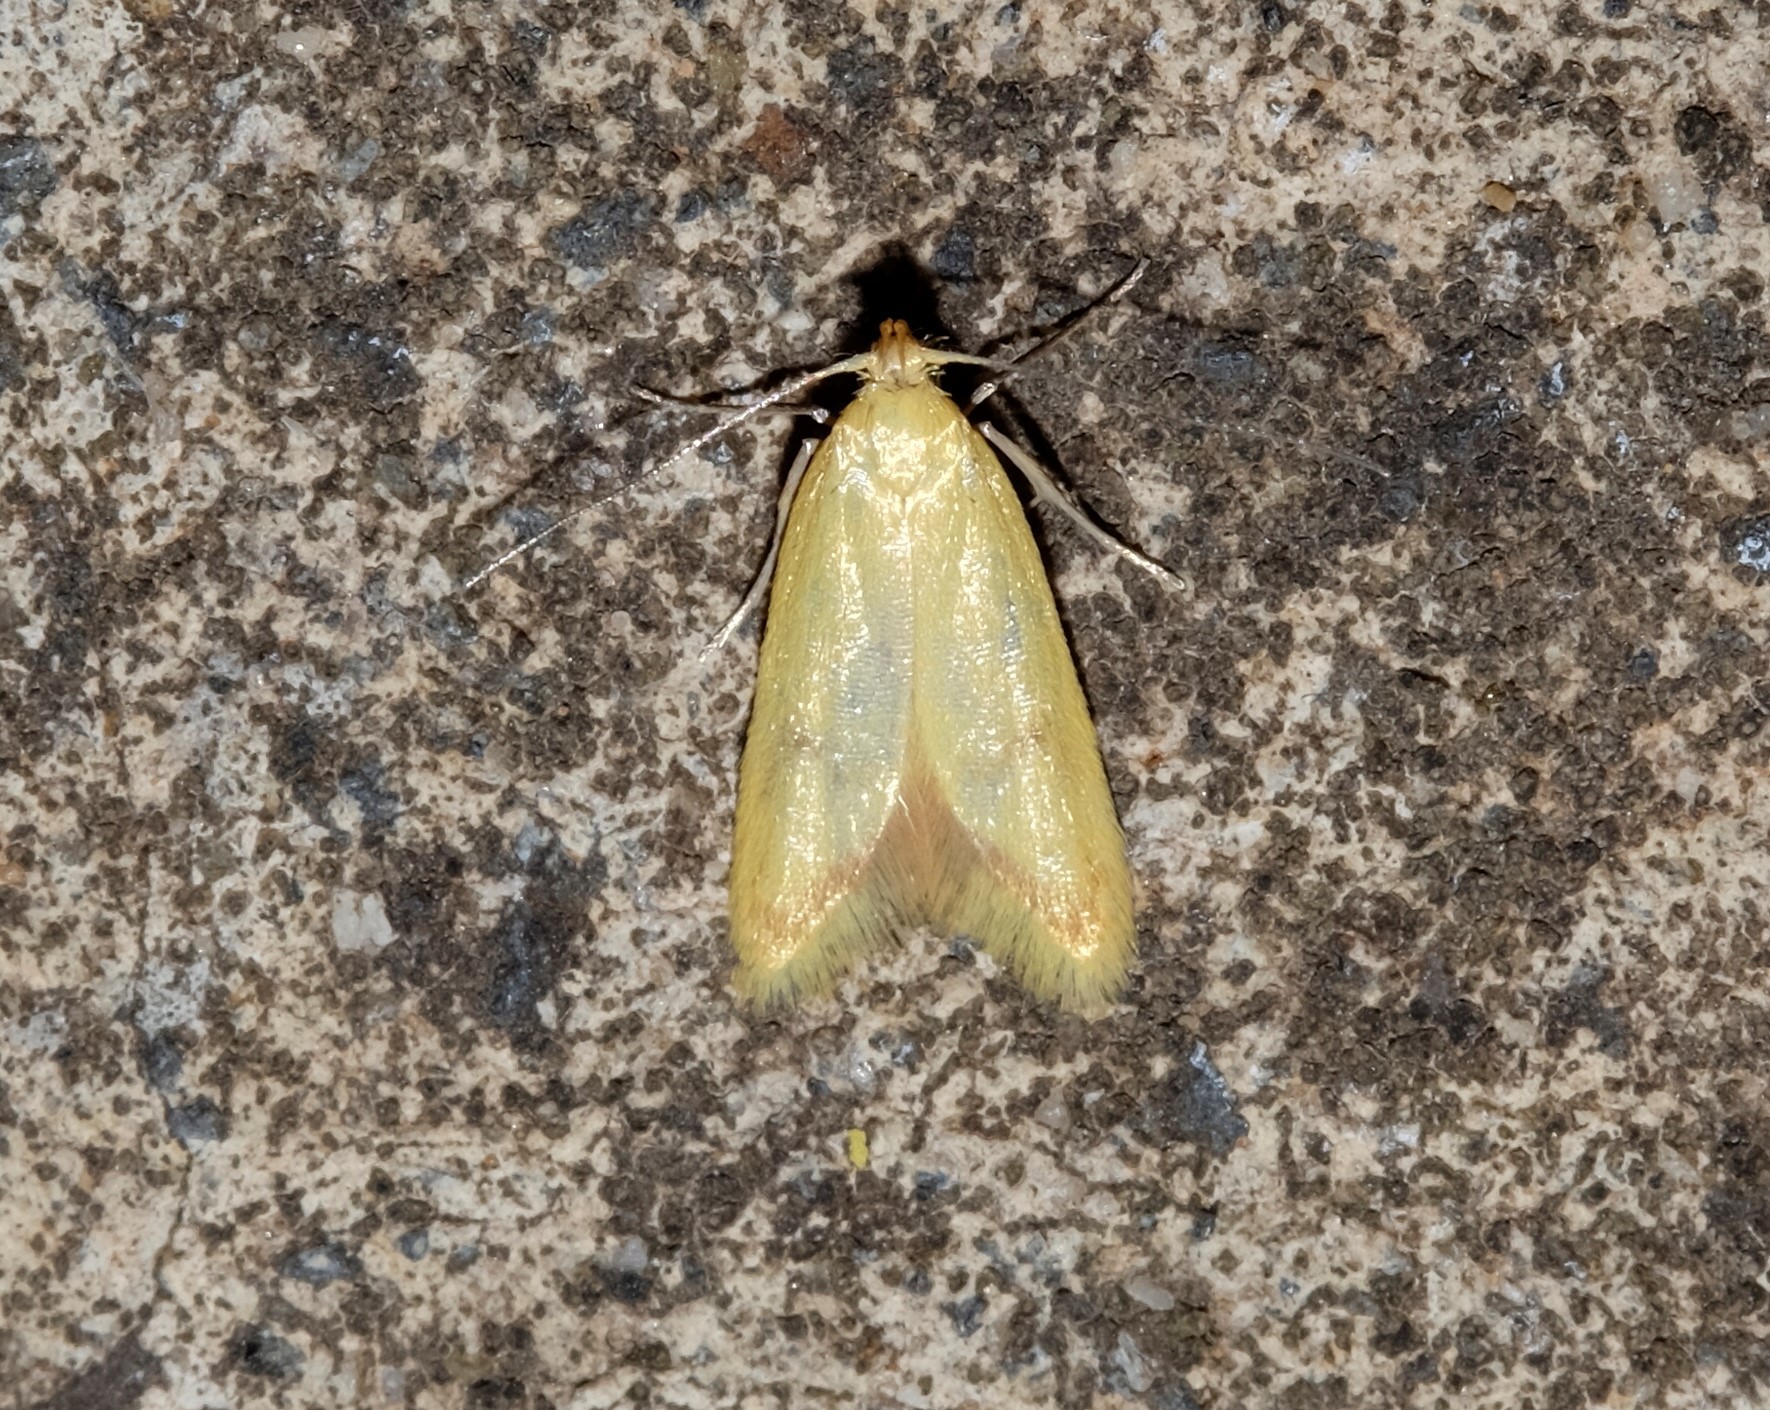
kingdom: Animalia
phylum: Arthropoda
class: Insecta
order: Lepidoptera
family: Oecophoridae
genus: Aeolothapsa
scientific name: Aeolothapsa malacella
